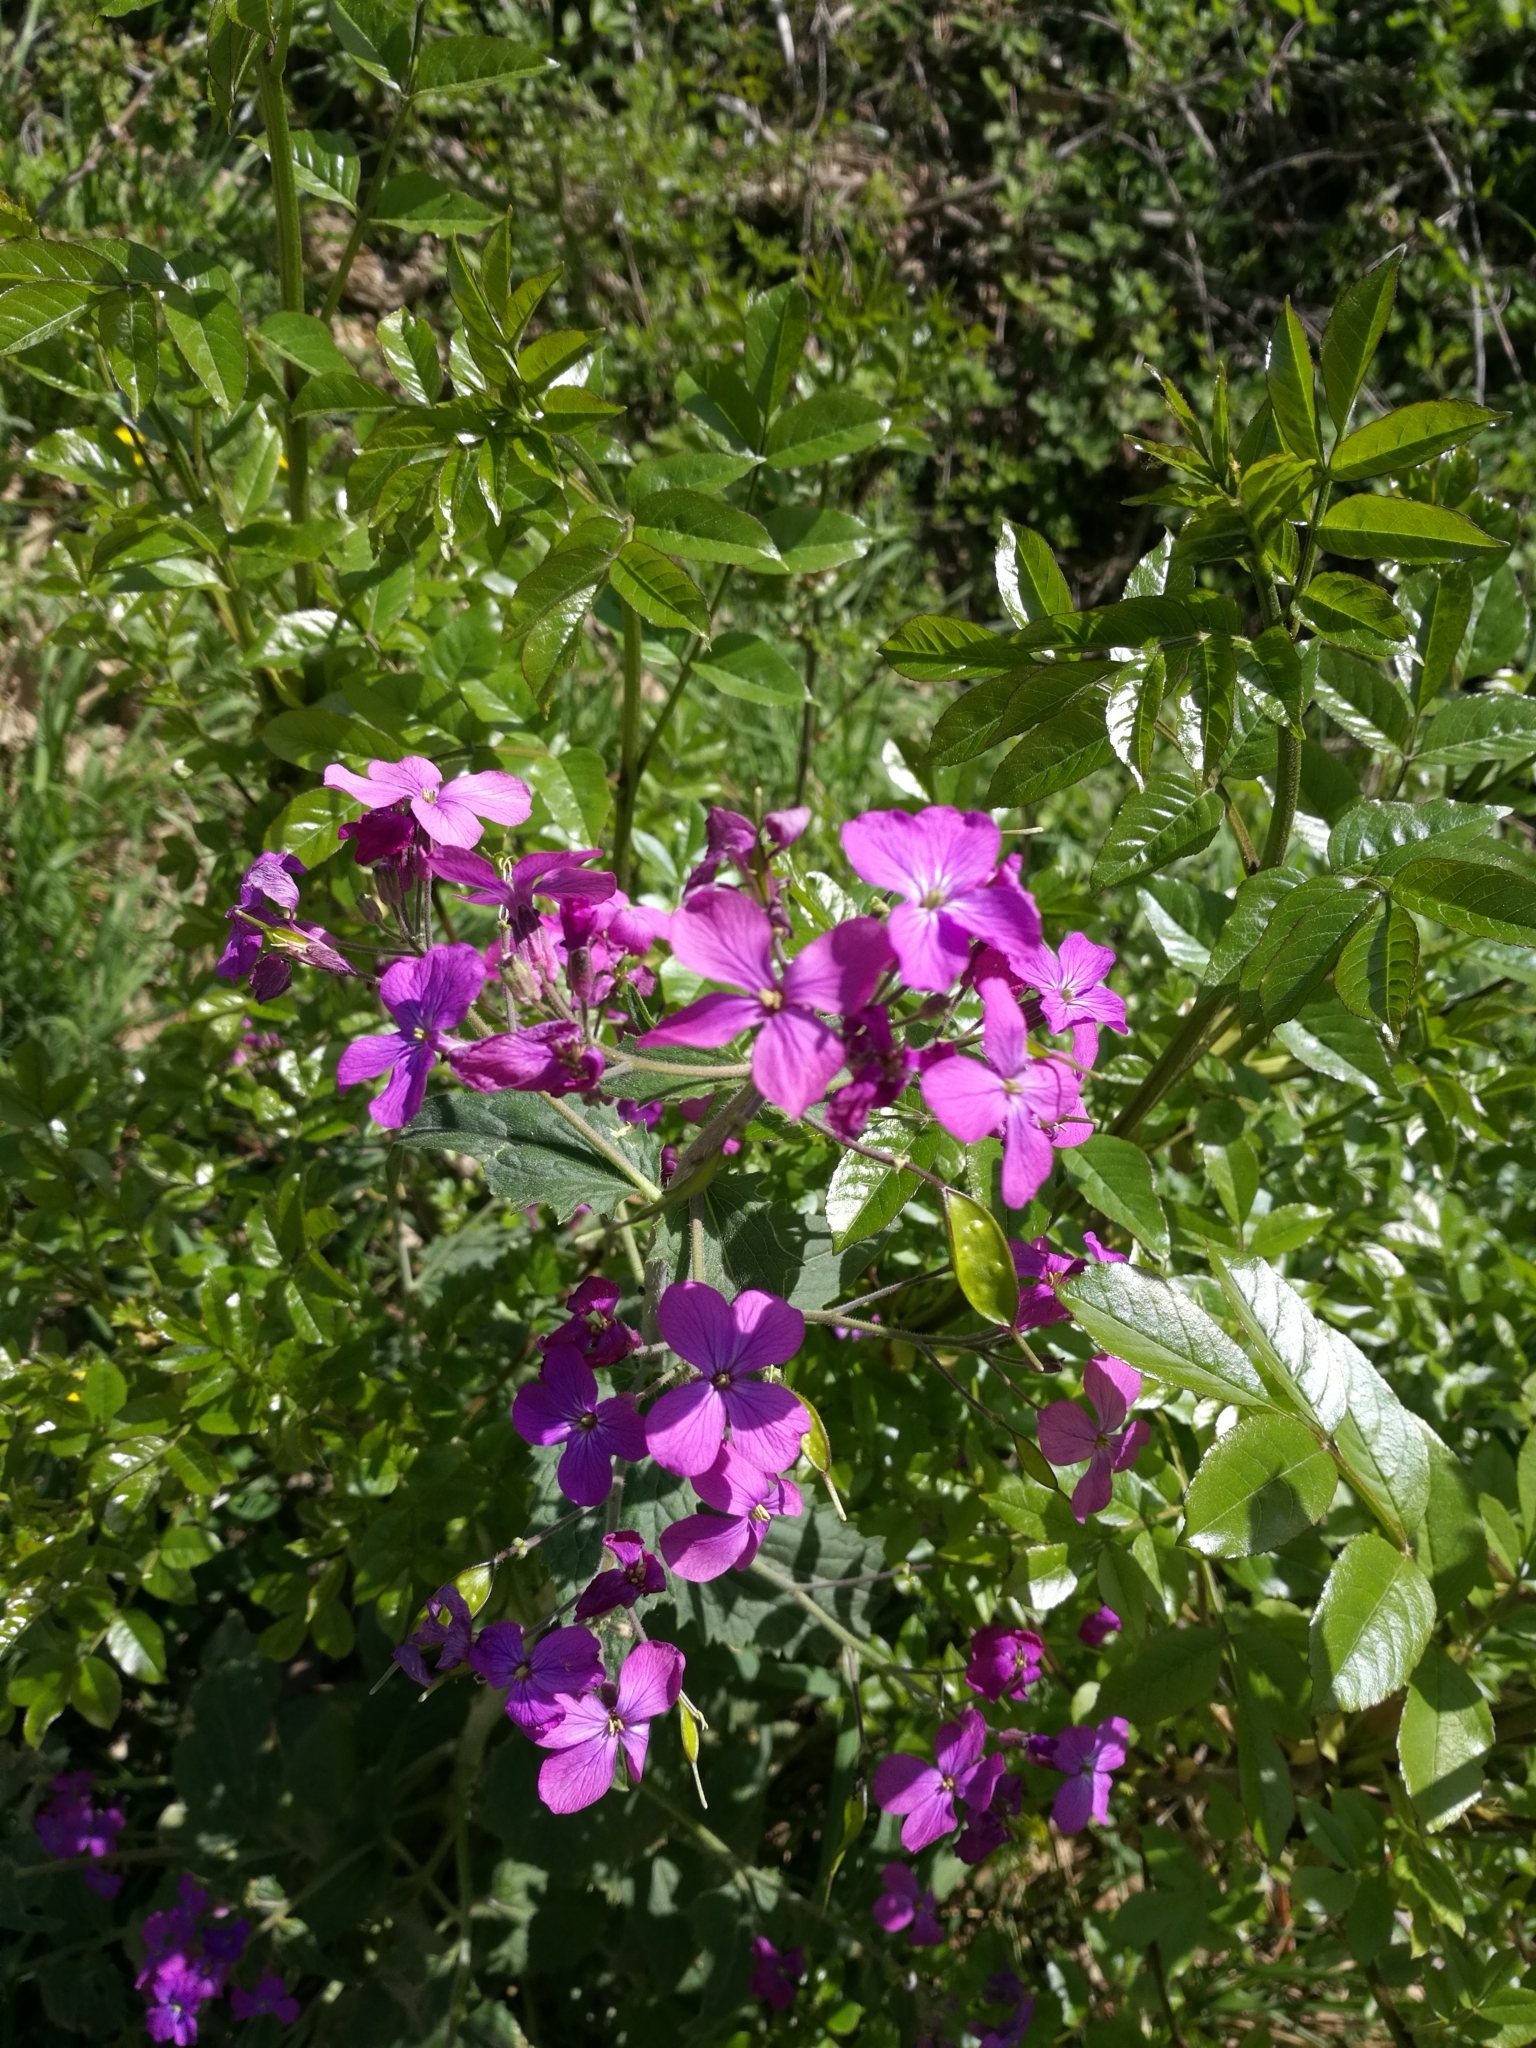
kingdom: Plantae
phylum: Tracheophyta
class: Magnoliopsida
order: Brassicales
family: Brassicaceae
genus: Lunaria
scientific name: Lunaria annua
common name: Honesty
